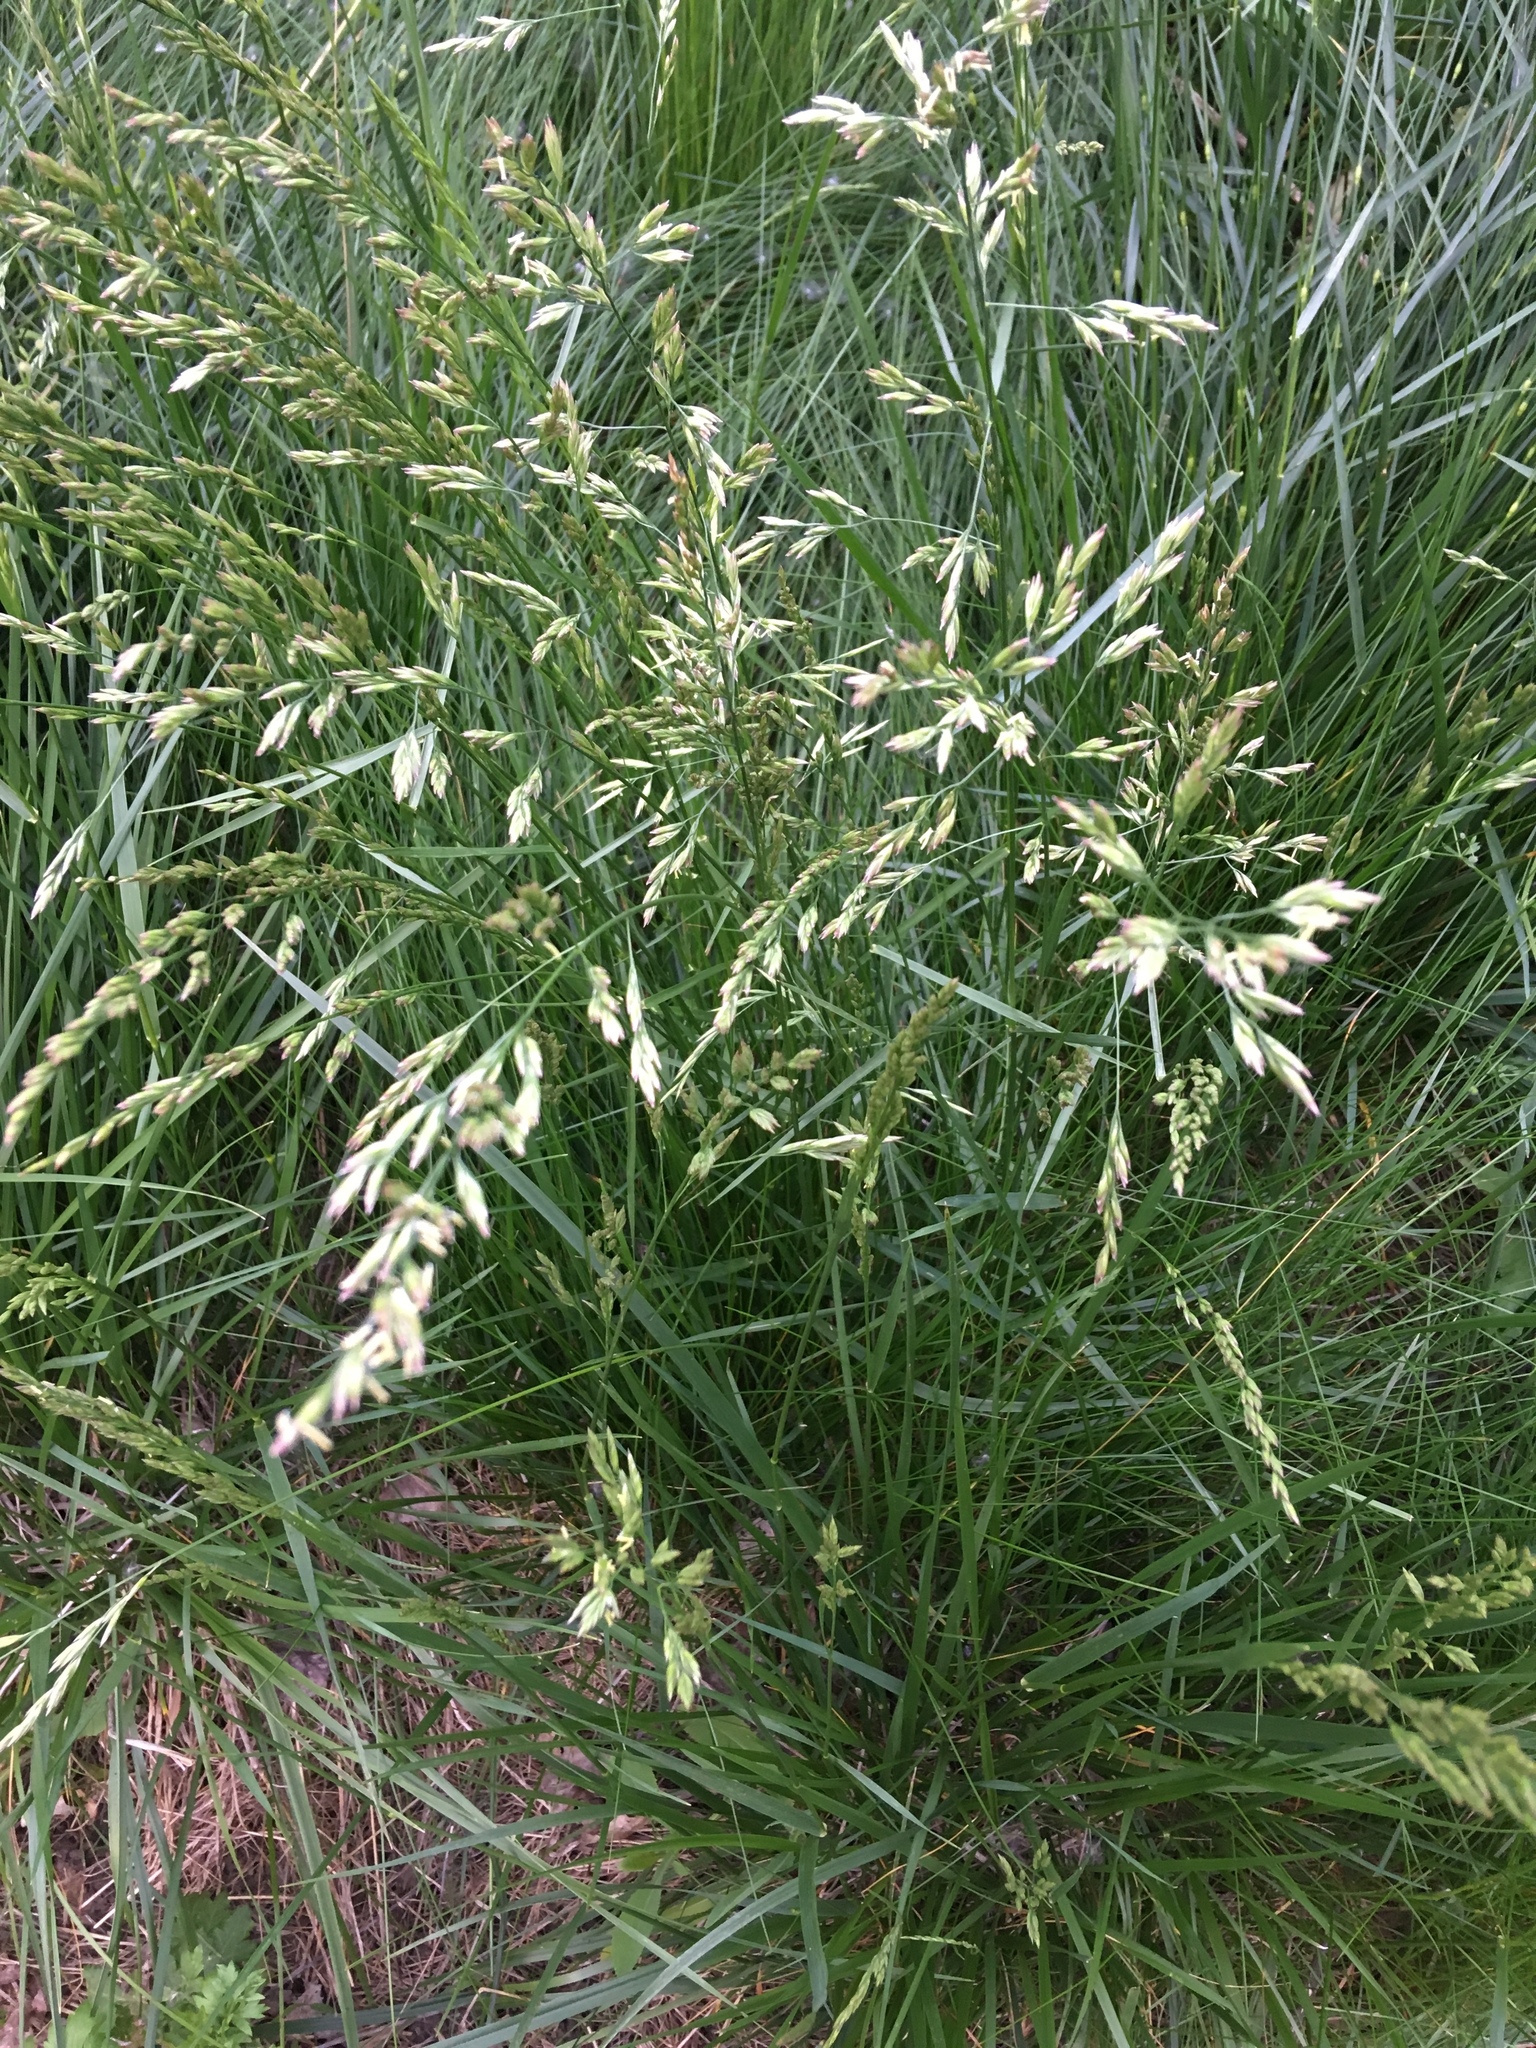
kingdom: Plantae
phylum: Tracheophyta
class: Liliopsida
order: Poales
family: Poaceae
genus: Lolium
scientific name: Lolium pratense
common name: Dover grass
